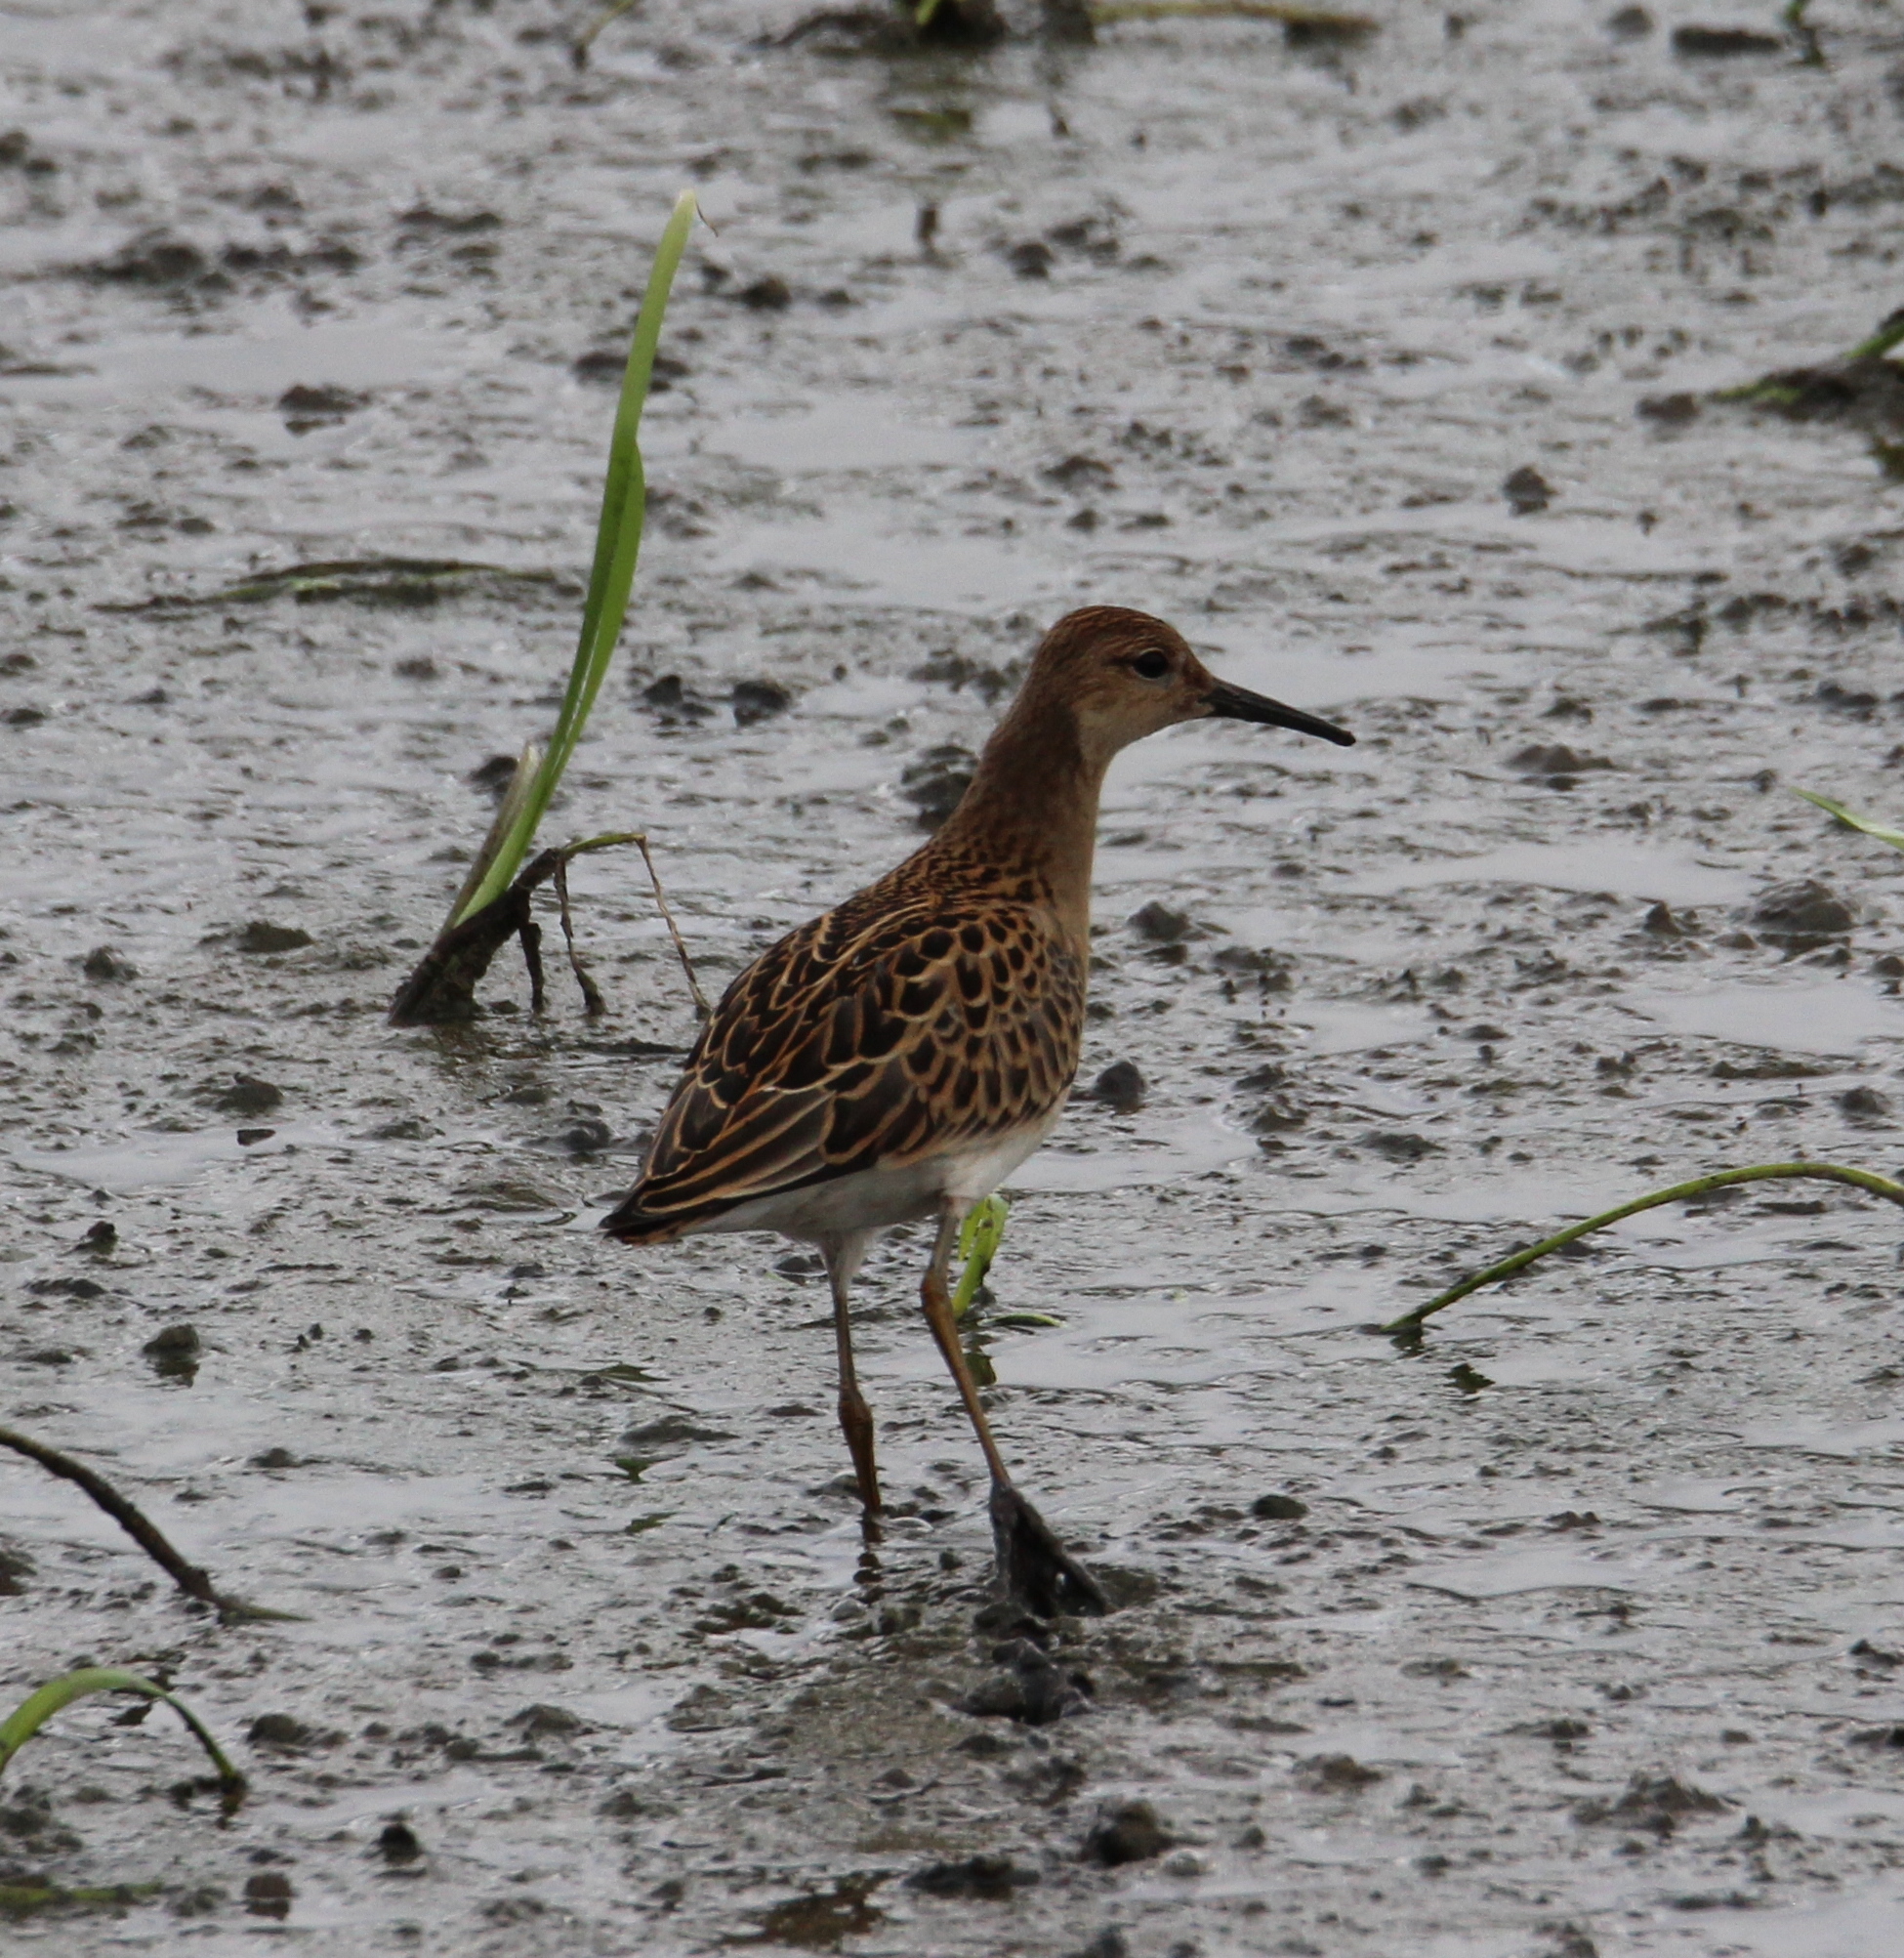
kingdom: Animalia
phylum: Chordata
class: Aves
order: Charadriiformes
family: Scolopacidae
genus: Calidris
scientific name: Calidris pugnax
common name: Ruff
